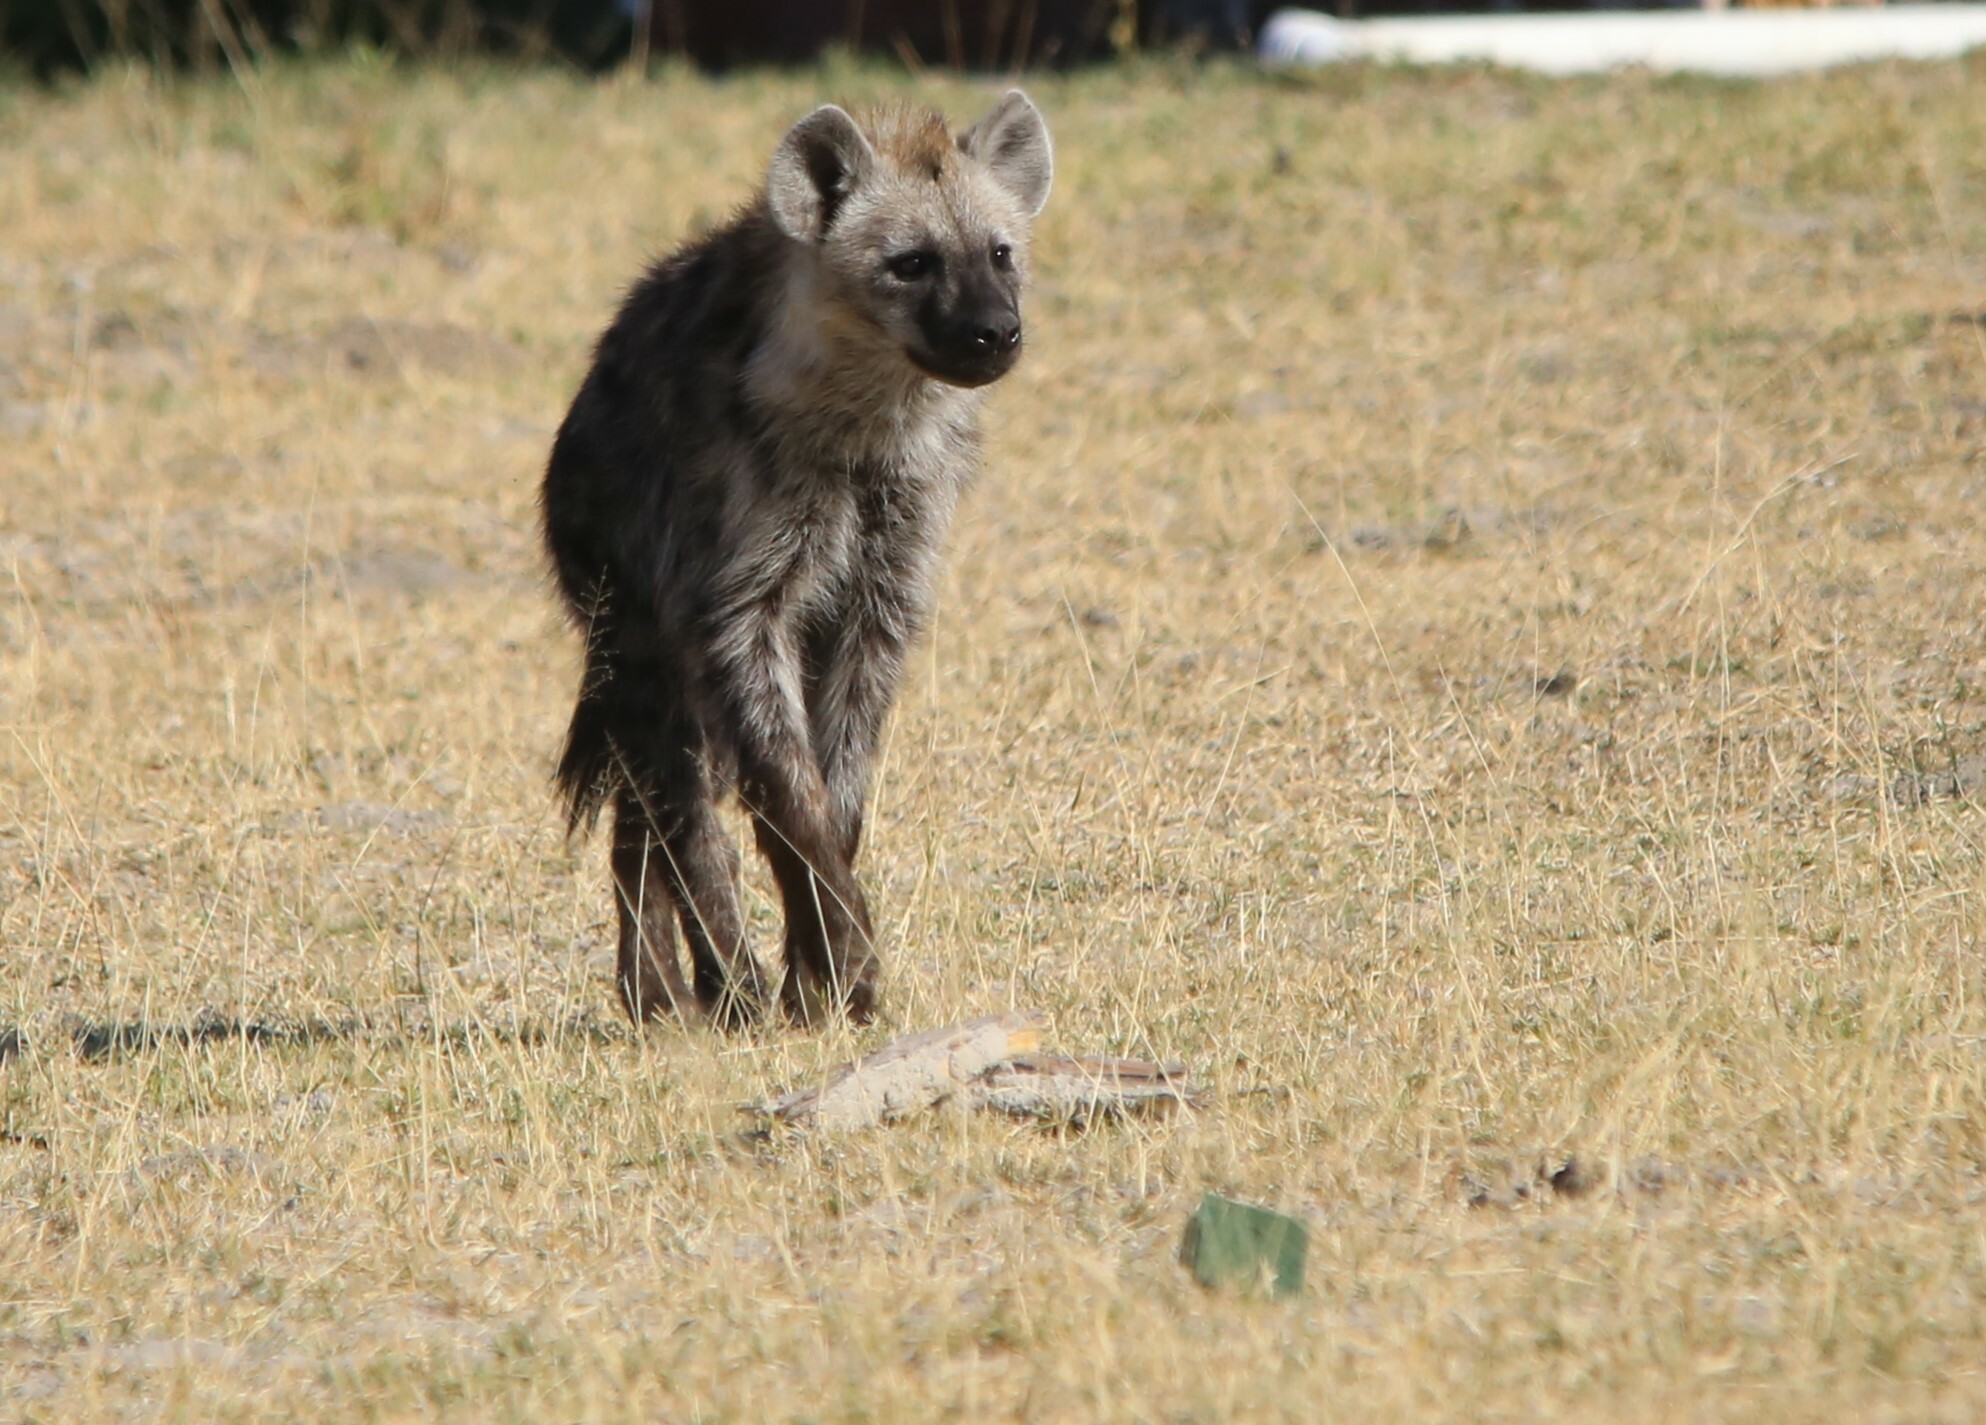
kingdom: Animalia
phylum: Chordata
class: Mammalia
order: Carnivora
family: Hyaenidae
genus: Crocuta
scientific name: Crocuta crocuta
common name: Spotted hyaena
